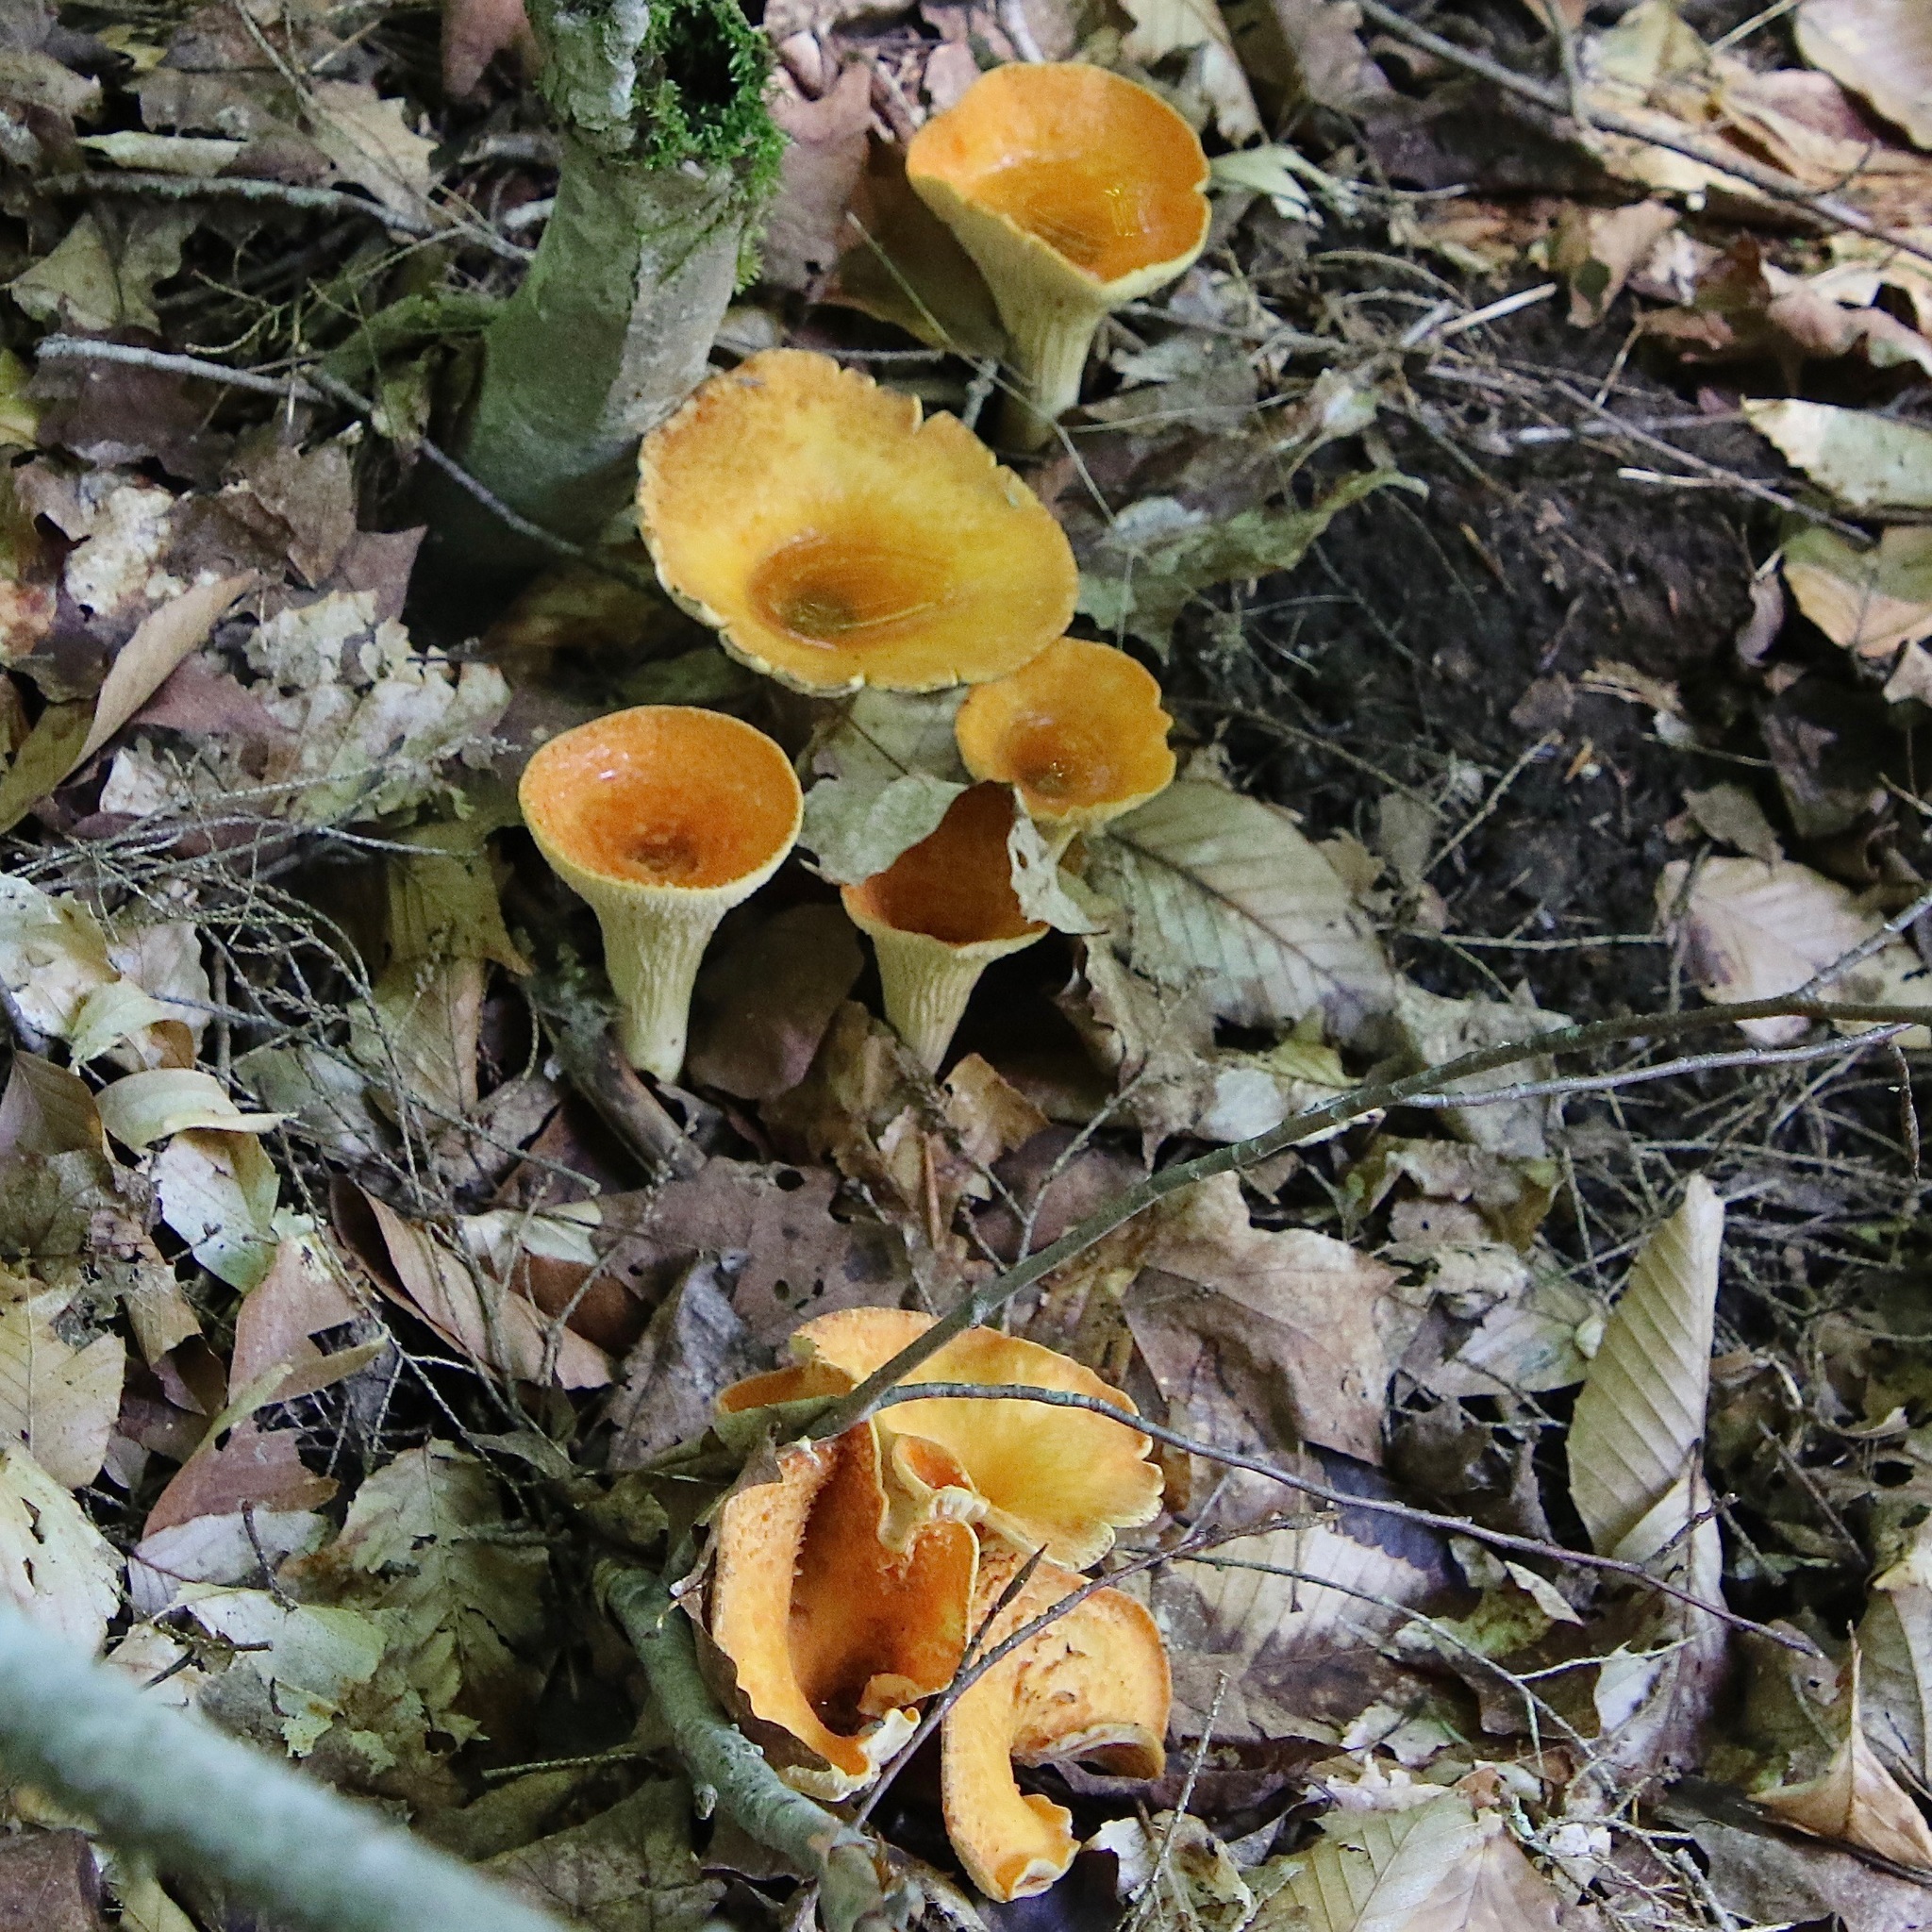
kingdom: Fungi
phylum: Basidiomycota
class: Agaricomycetes
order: Gomphales
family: Gomphaceae
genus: Turbinellus
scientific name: Turbinellus floccosus
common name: Scaly chanterelle
